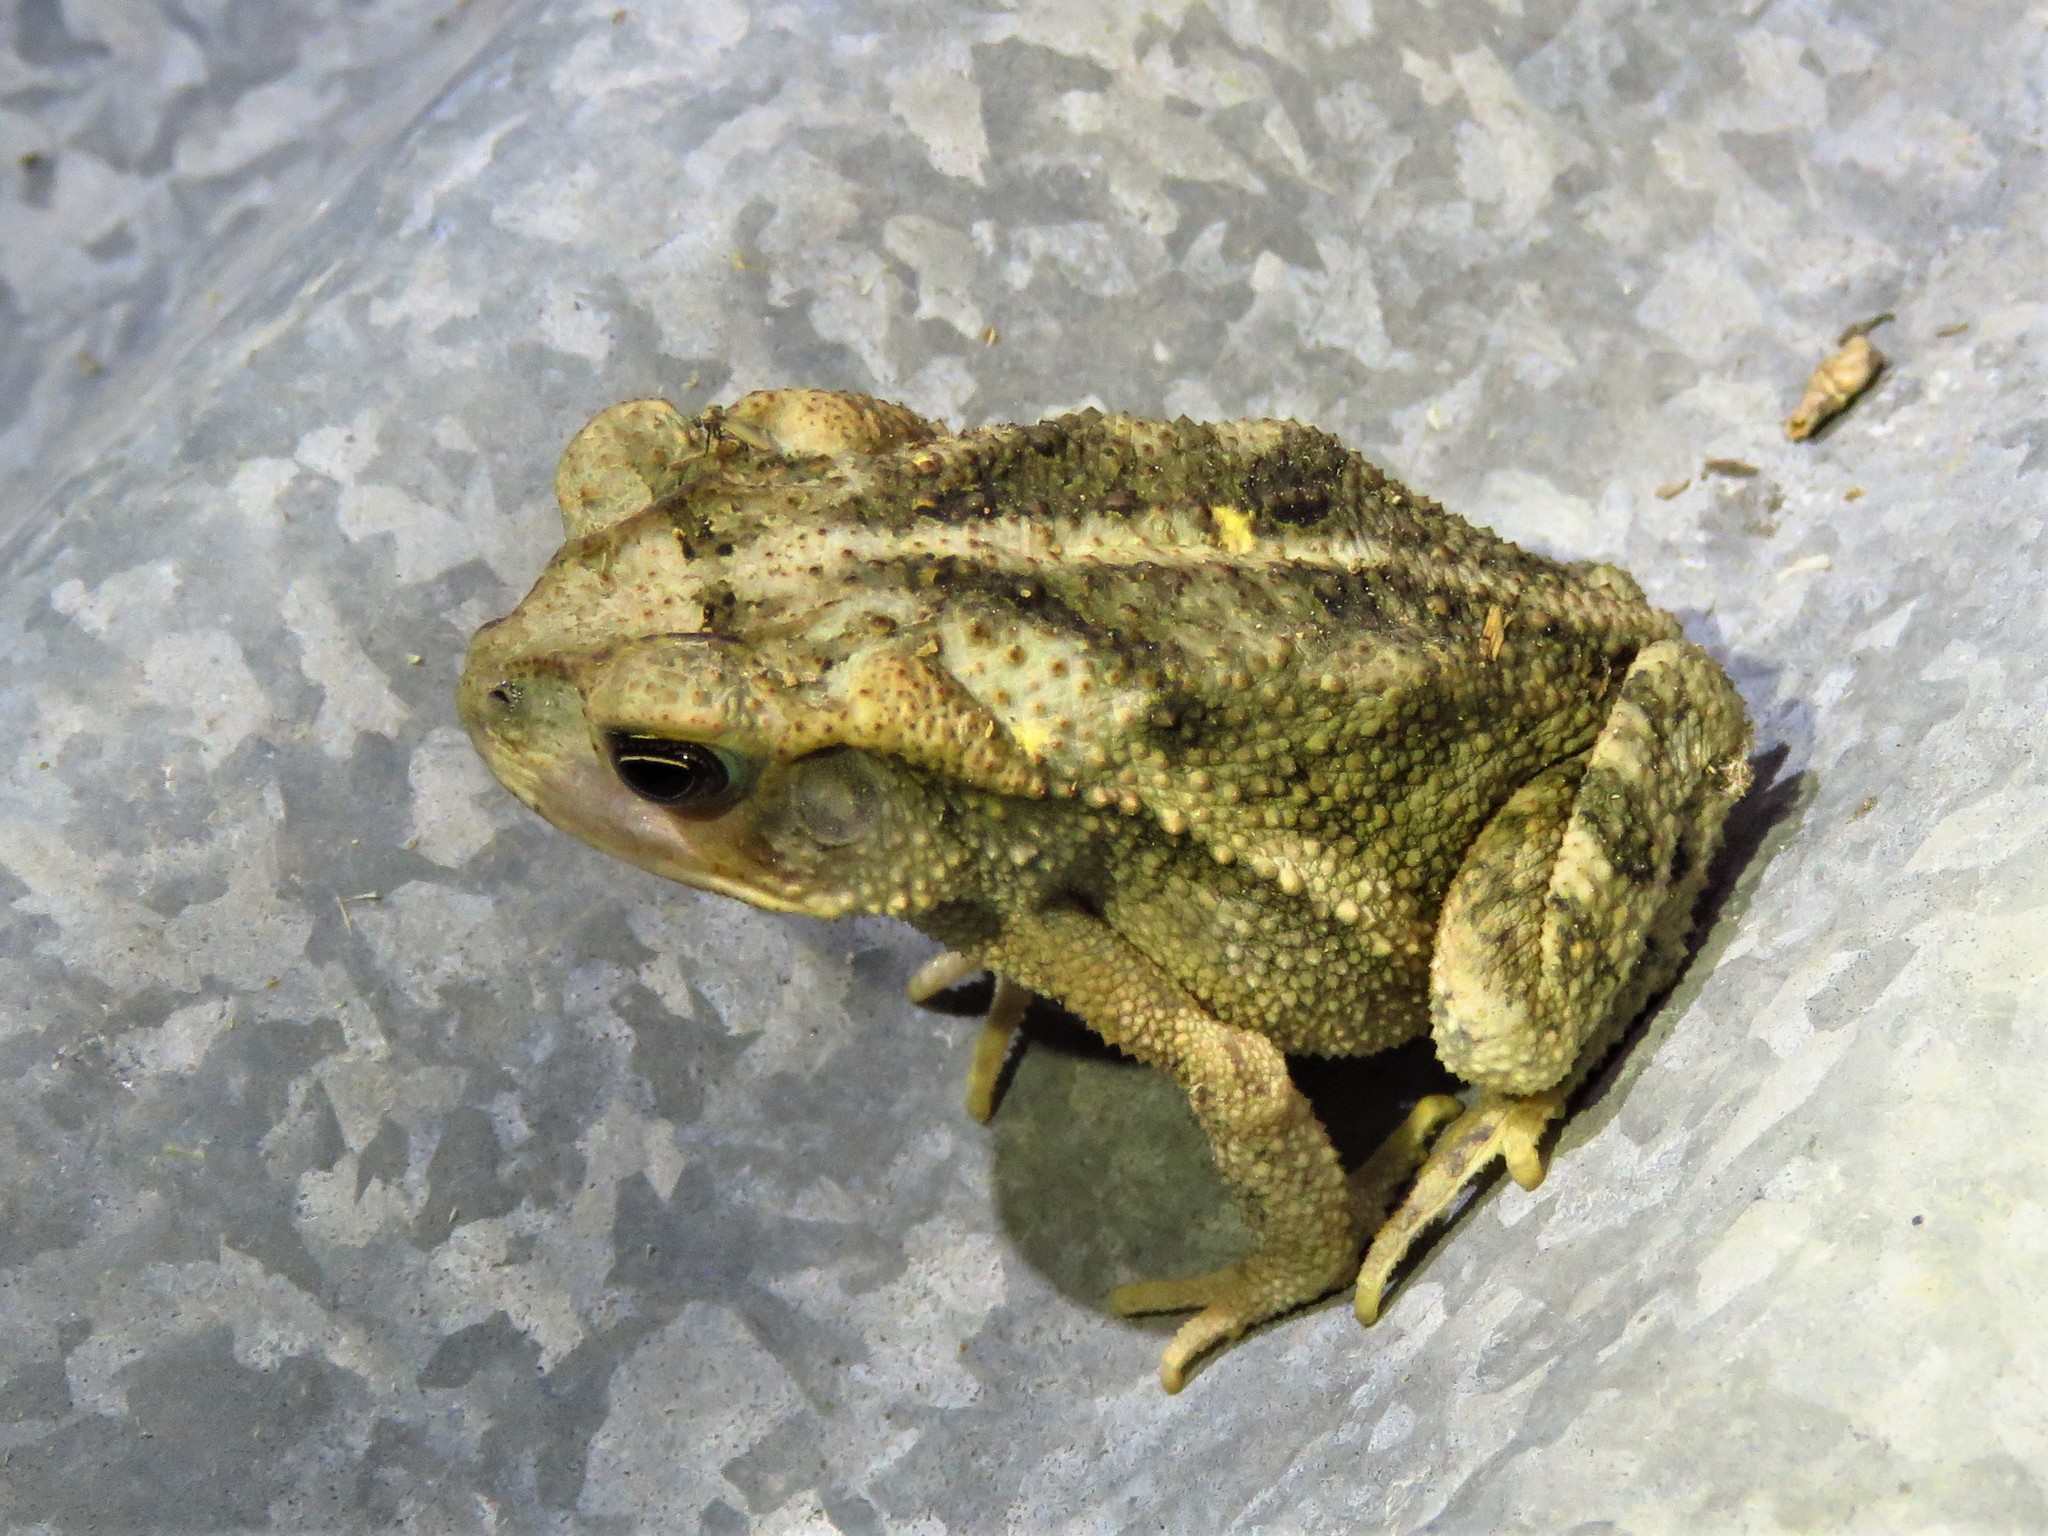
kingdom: Animalia
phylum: Chordata
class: Amphibia
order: Anura
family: Bufonidae
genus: Incilius
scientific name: Incilius nebulifer
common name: Gulf coast toad
